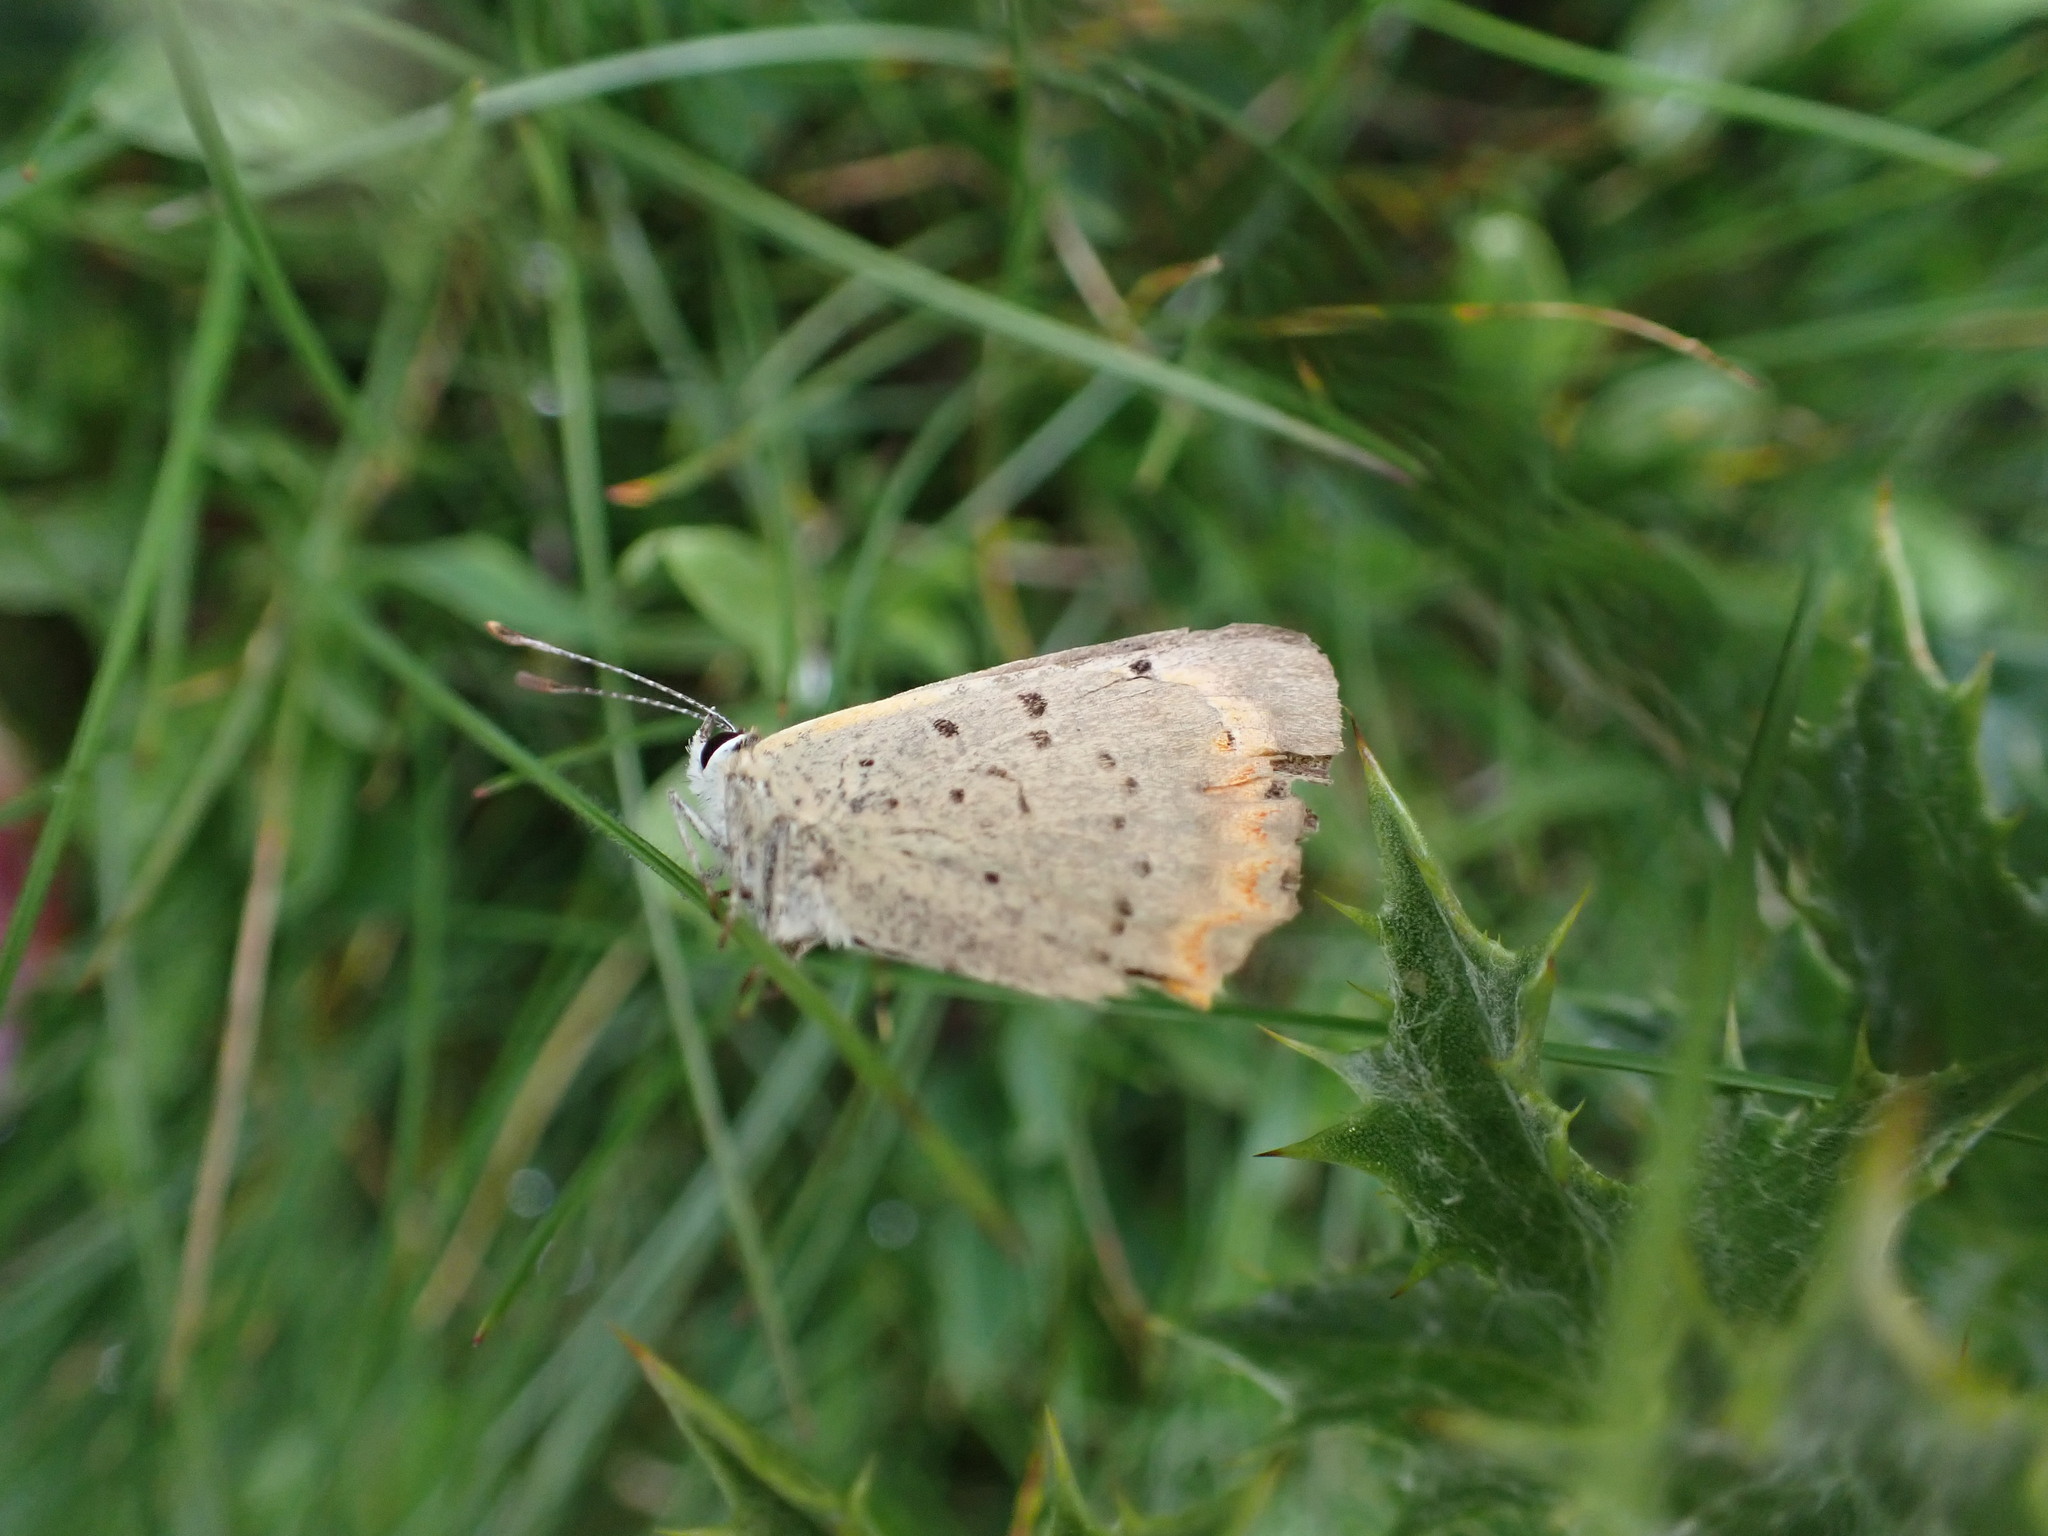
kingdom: Animalia
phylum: Arthropoda
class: Insecta
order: Lepidoptera
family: Lycaenidae
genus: Lycaena
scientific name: Lycaena phlaeas
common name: Small copper
